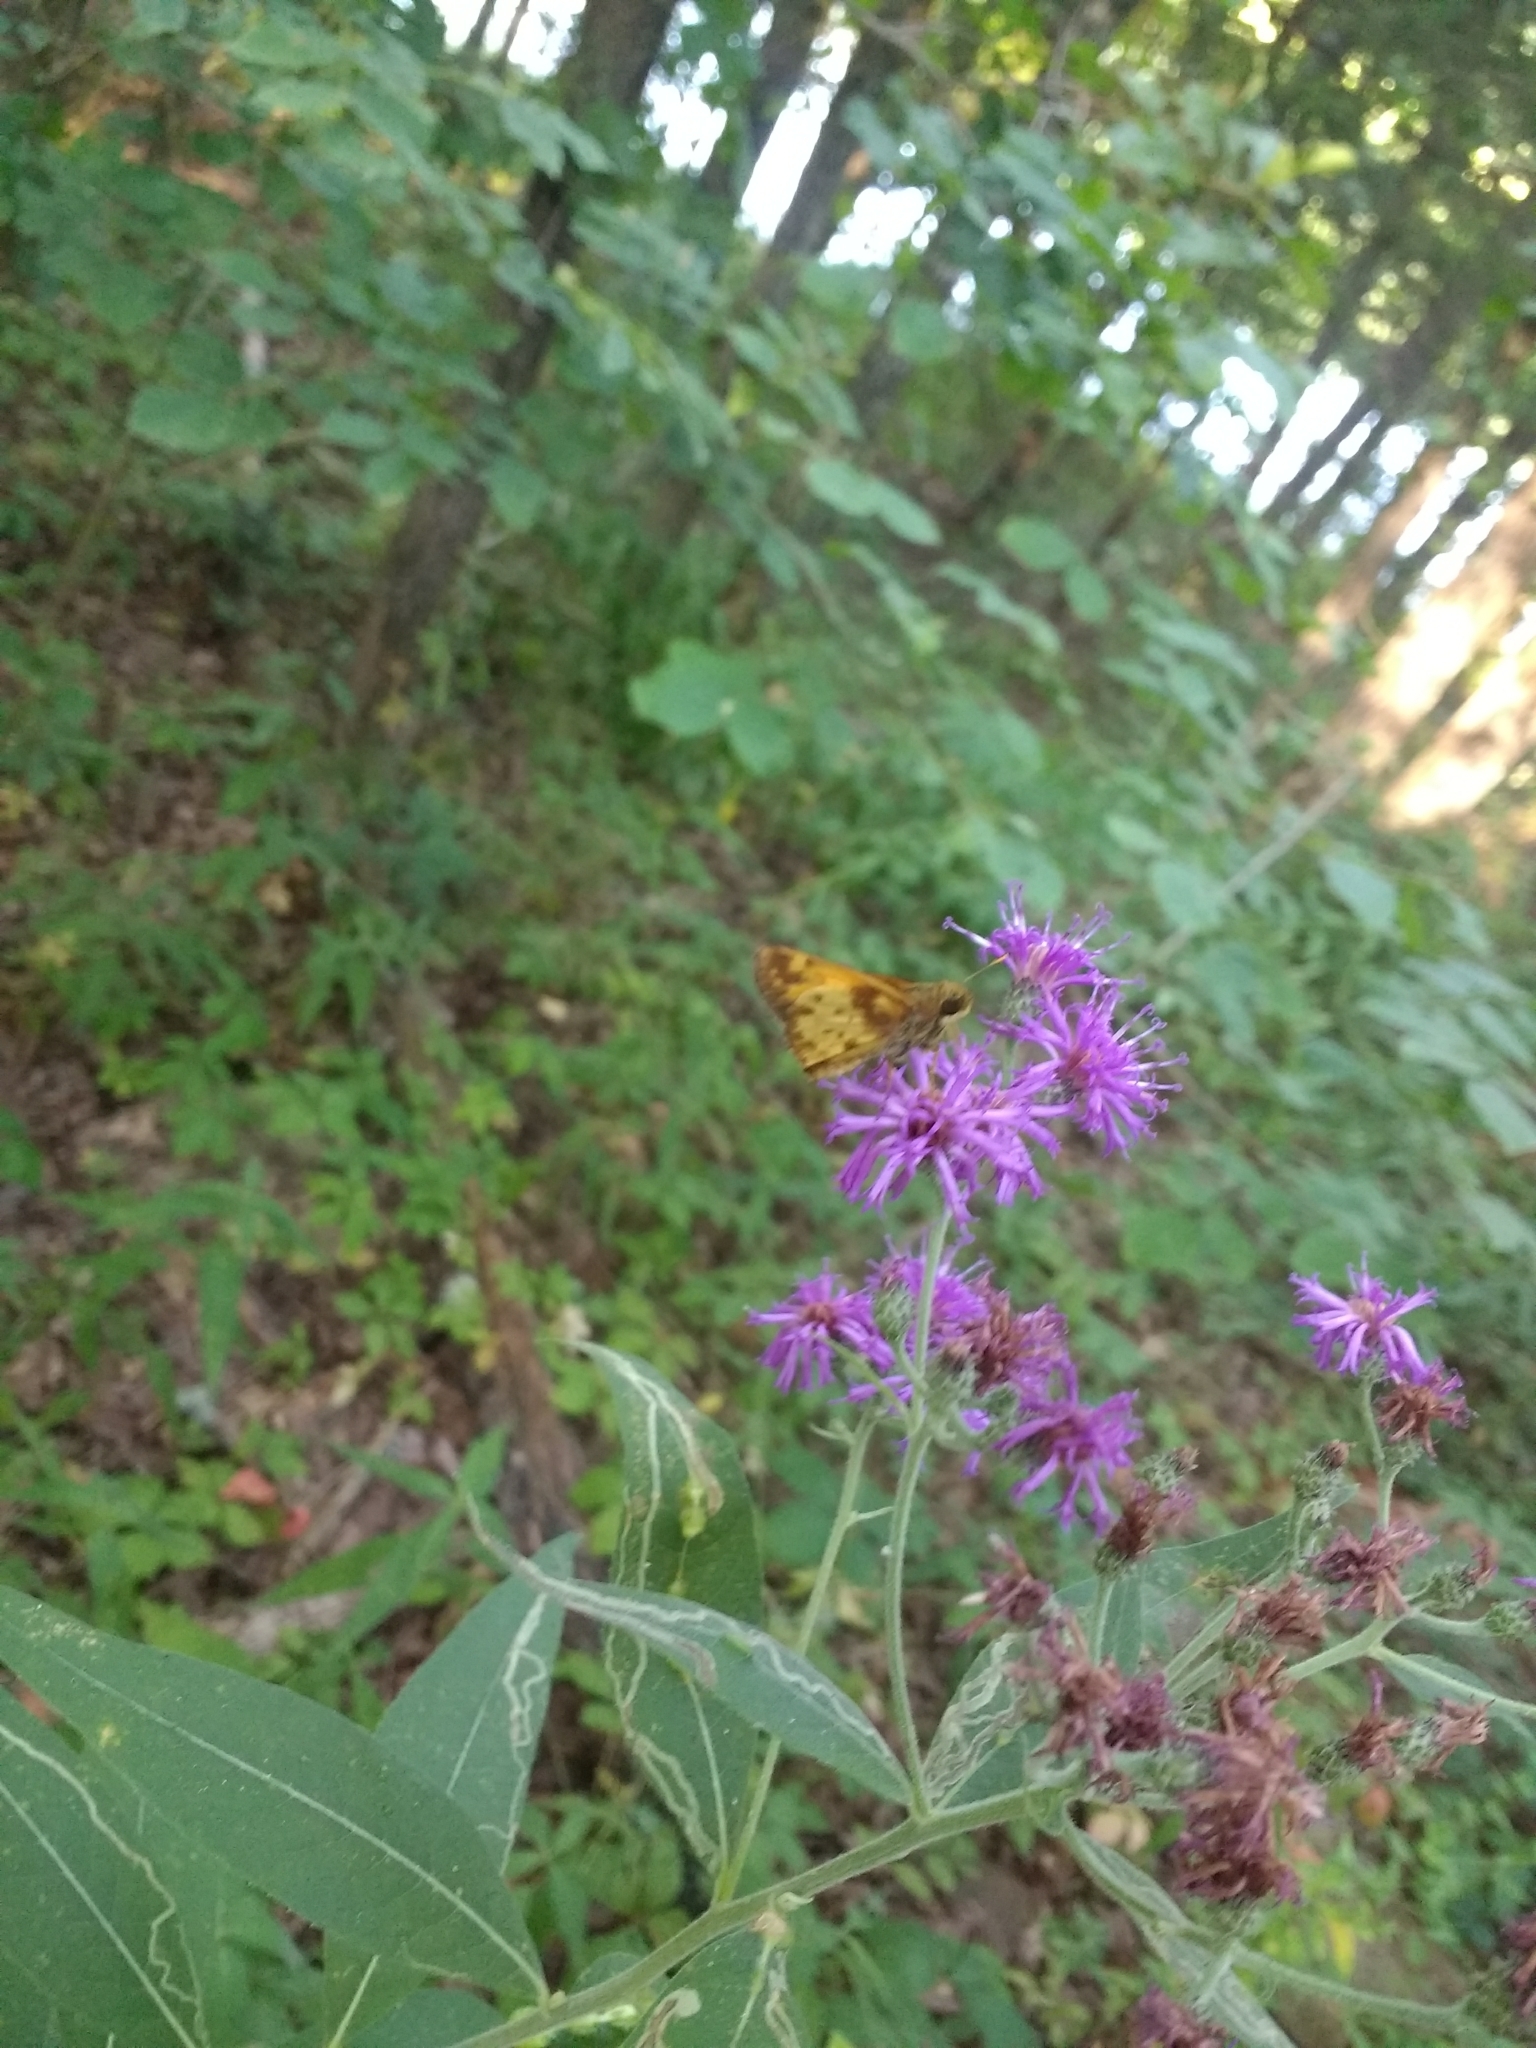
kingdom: Animalia
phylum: Arthropoda
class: Insecta
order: Lepidoptera
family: Hesperiidae
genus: Lon
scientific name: Lon zabulon
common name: Zabulon skipper
